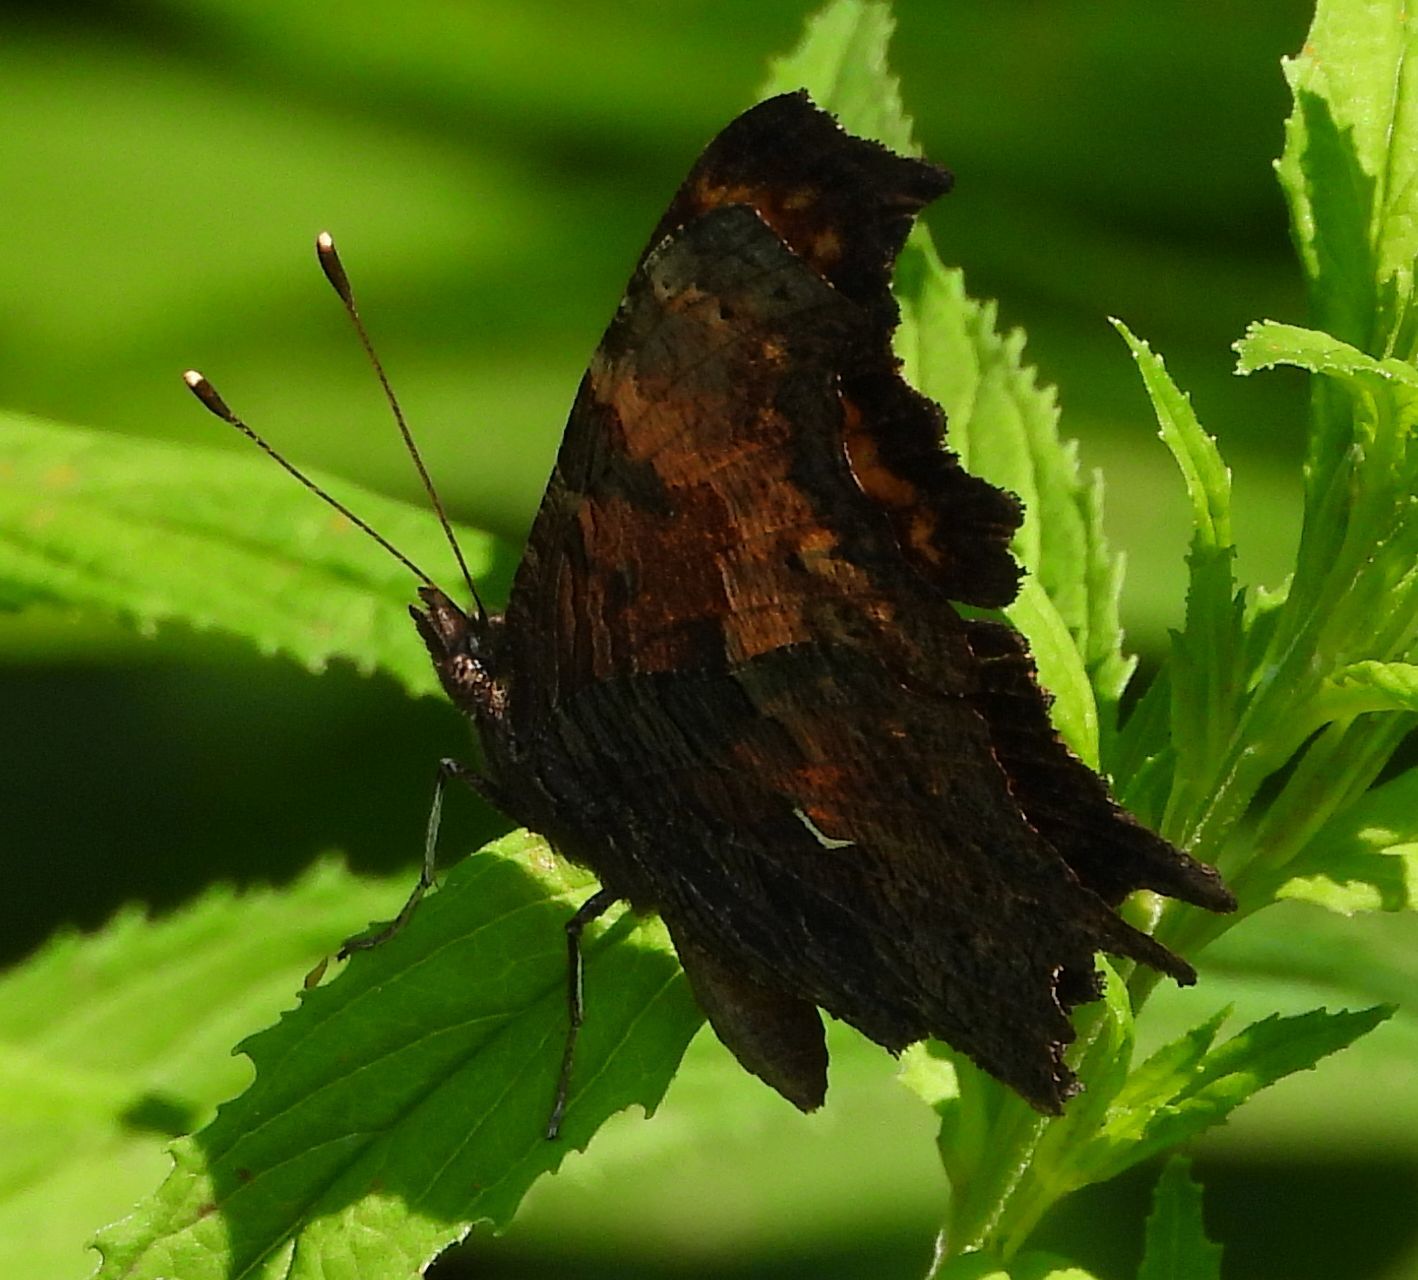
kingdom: Animalia
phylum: Arthropoda
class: Insecta
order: Lepidoptera
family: Nymphalidae
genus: Polygonia
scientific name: Polygonia progne
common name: Gray comma
